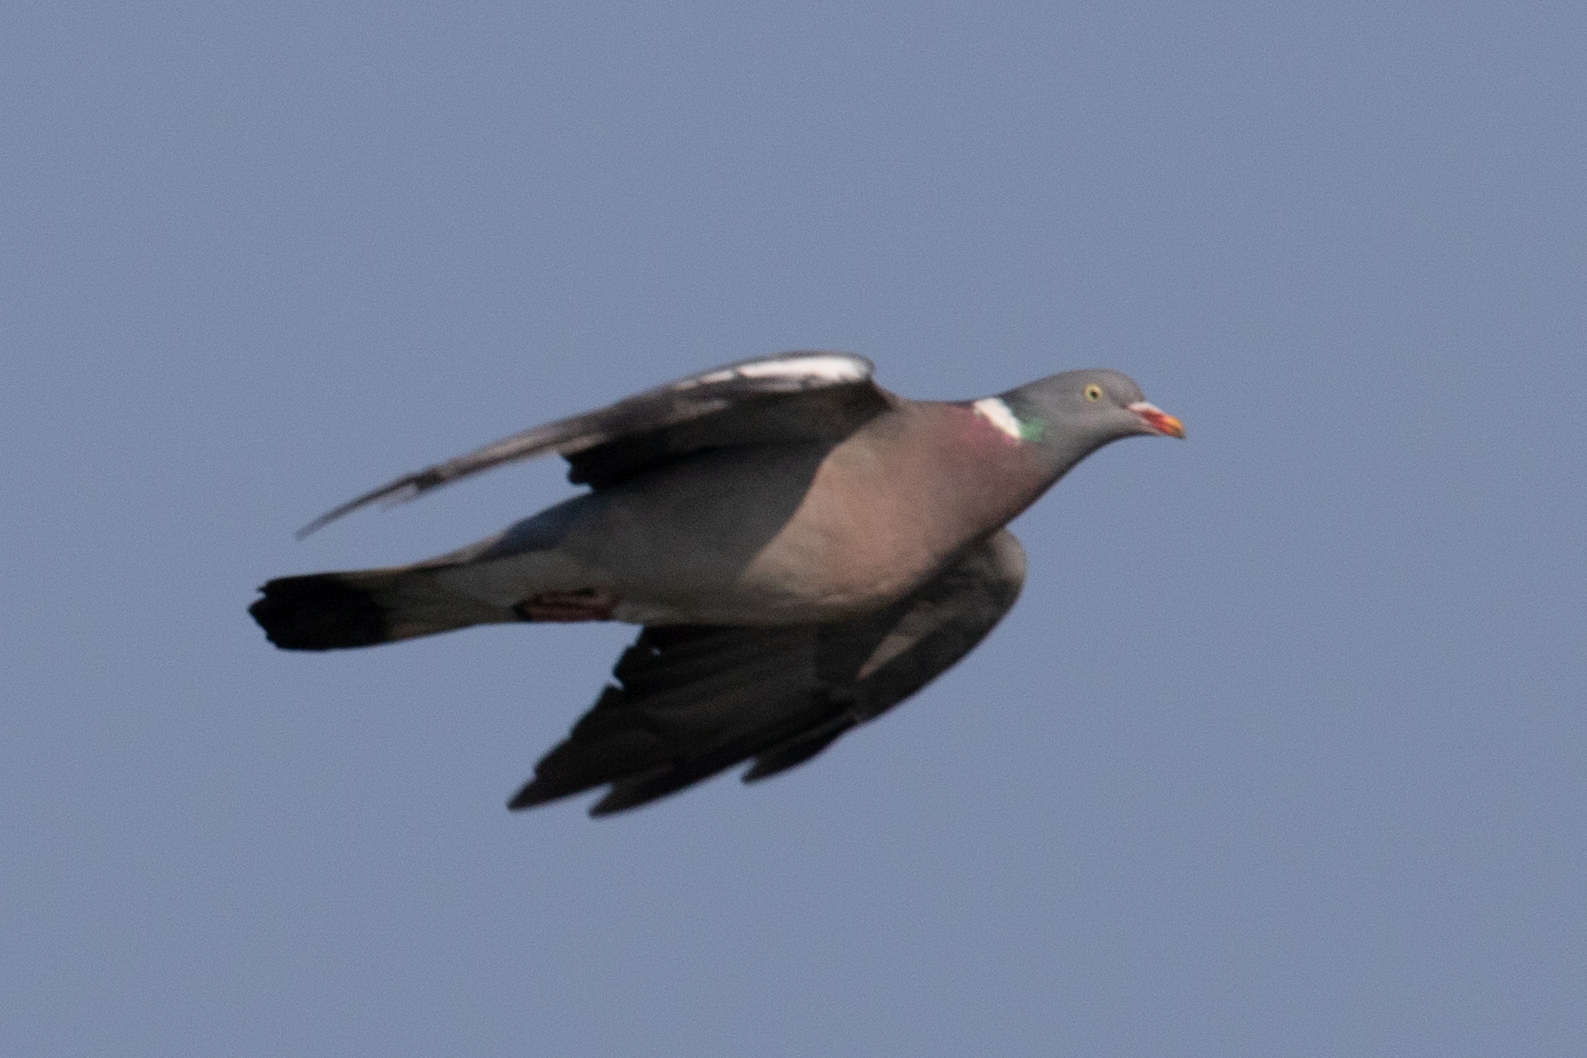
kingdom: Animalia
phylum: Chordata
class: Aves
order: Columbiformes
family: Columbidae
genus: Columba
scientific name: Columba palumbus
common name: Common wood pigeon
